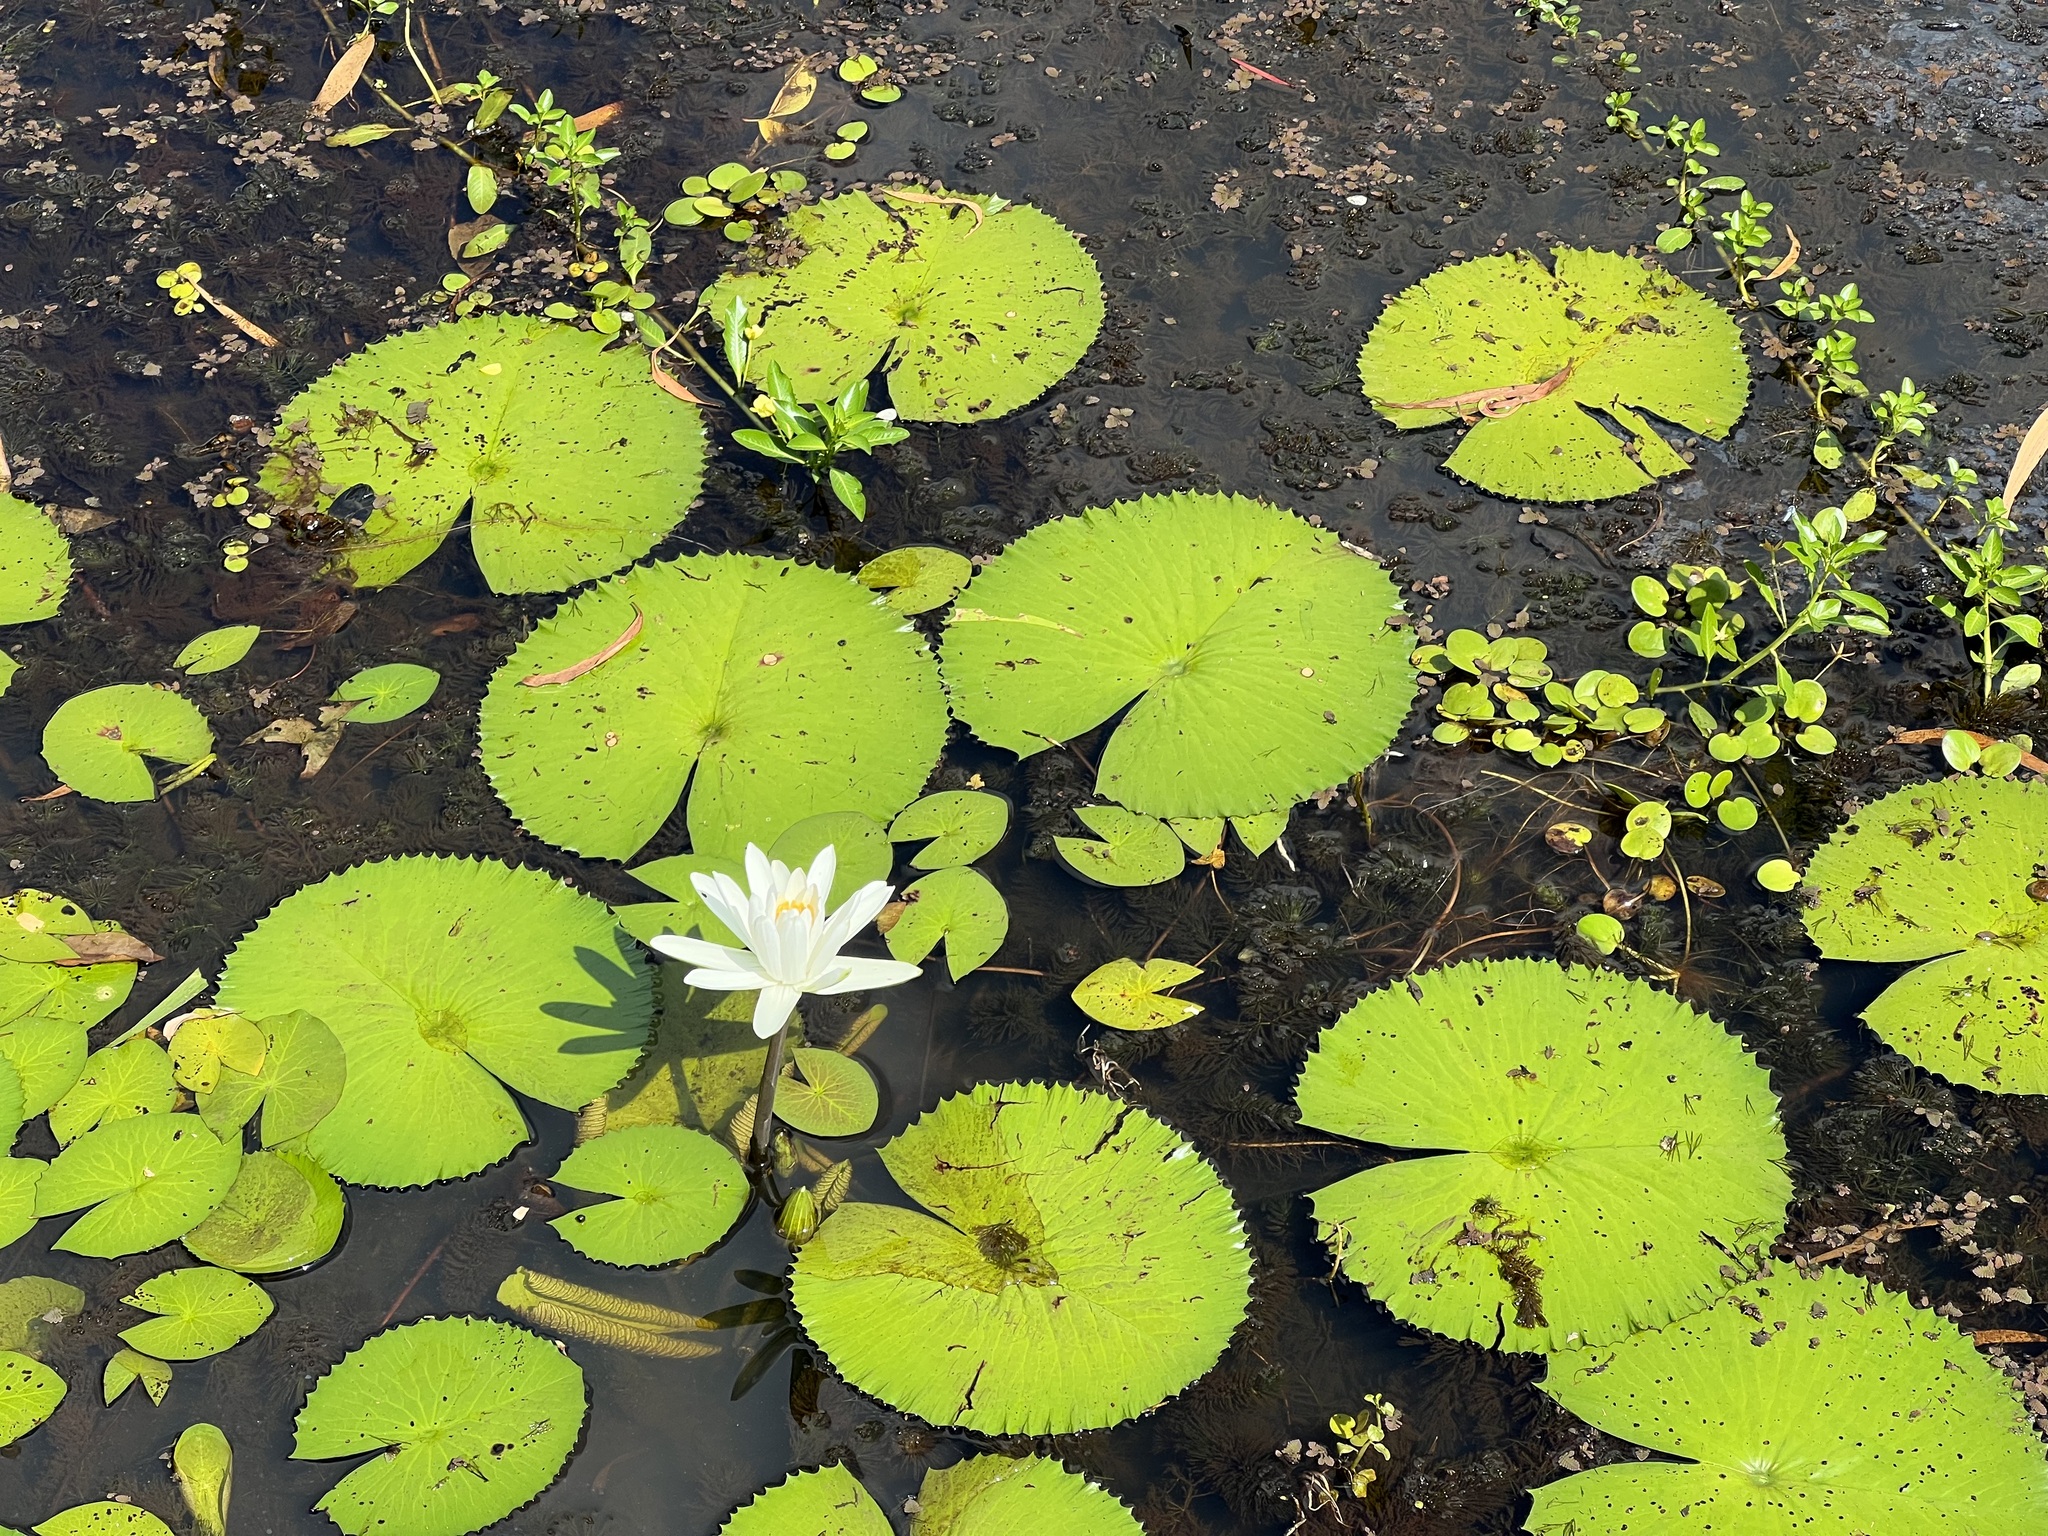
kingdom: Plantae
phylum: Tracheophyta
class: Magnoliopsida
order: Nymphaeales
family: Nymphaeaceae
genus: Nymphaea
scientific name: Nymphaea pubescens
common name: Hairy water lily
